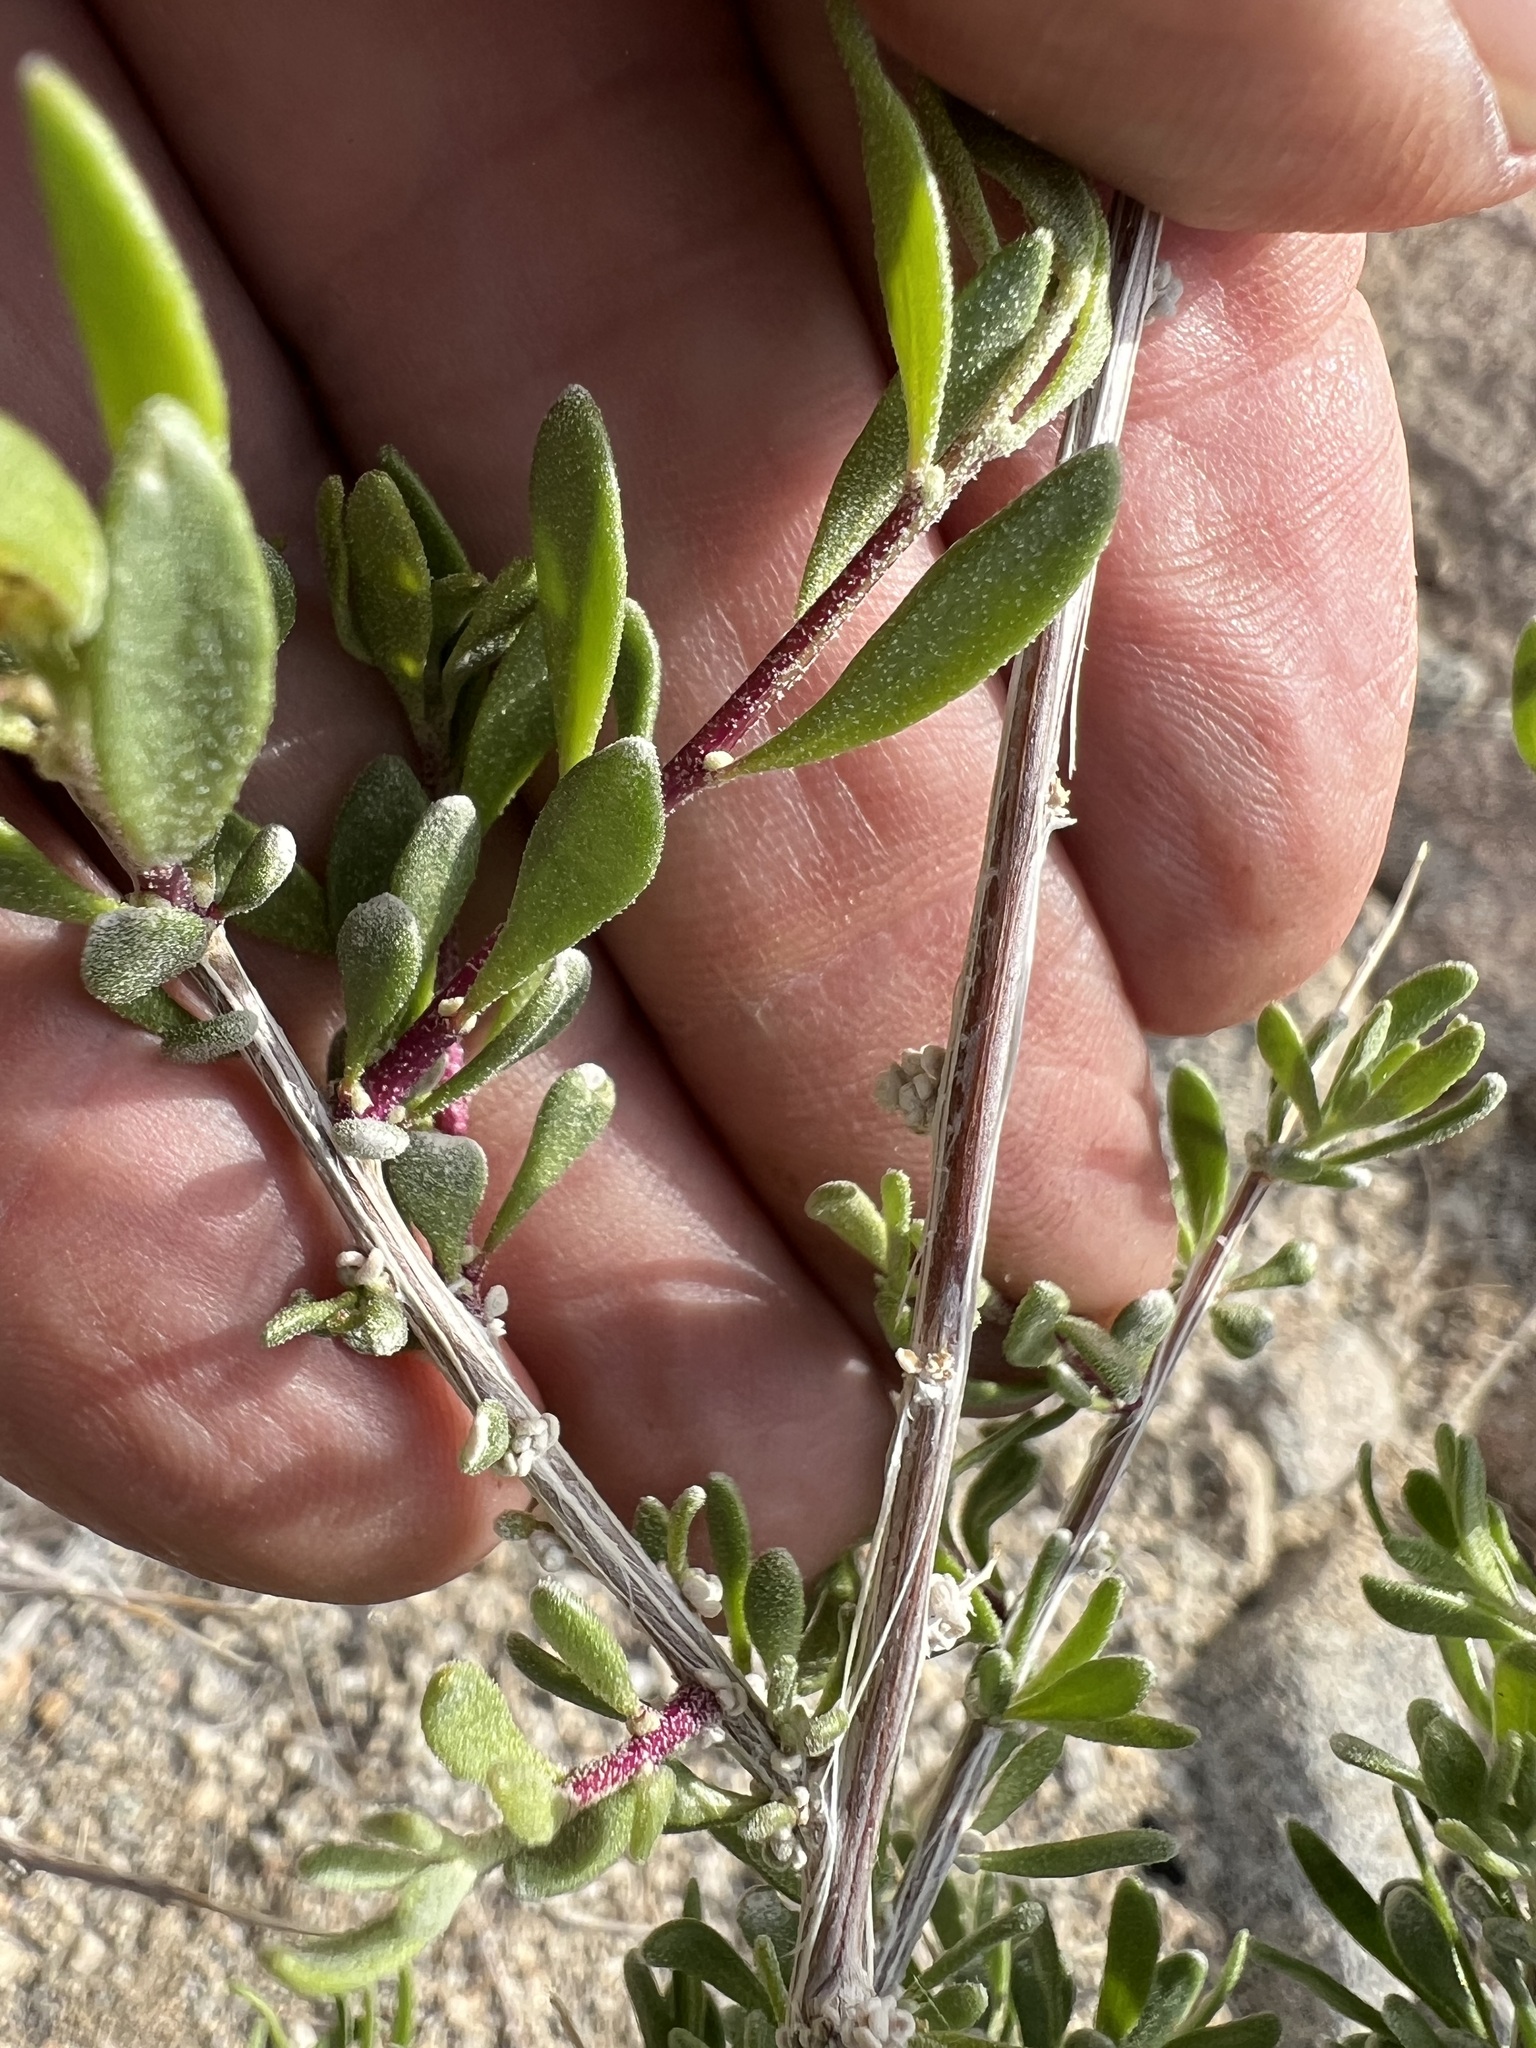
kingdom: Plantae
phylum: Tracheophyta
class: Magnoliopsida
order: Caryophyllales
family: Amaranthaceae
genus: Grayia
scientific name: Grayia spinosa
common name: Spiny hopsage
